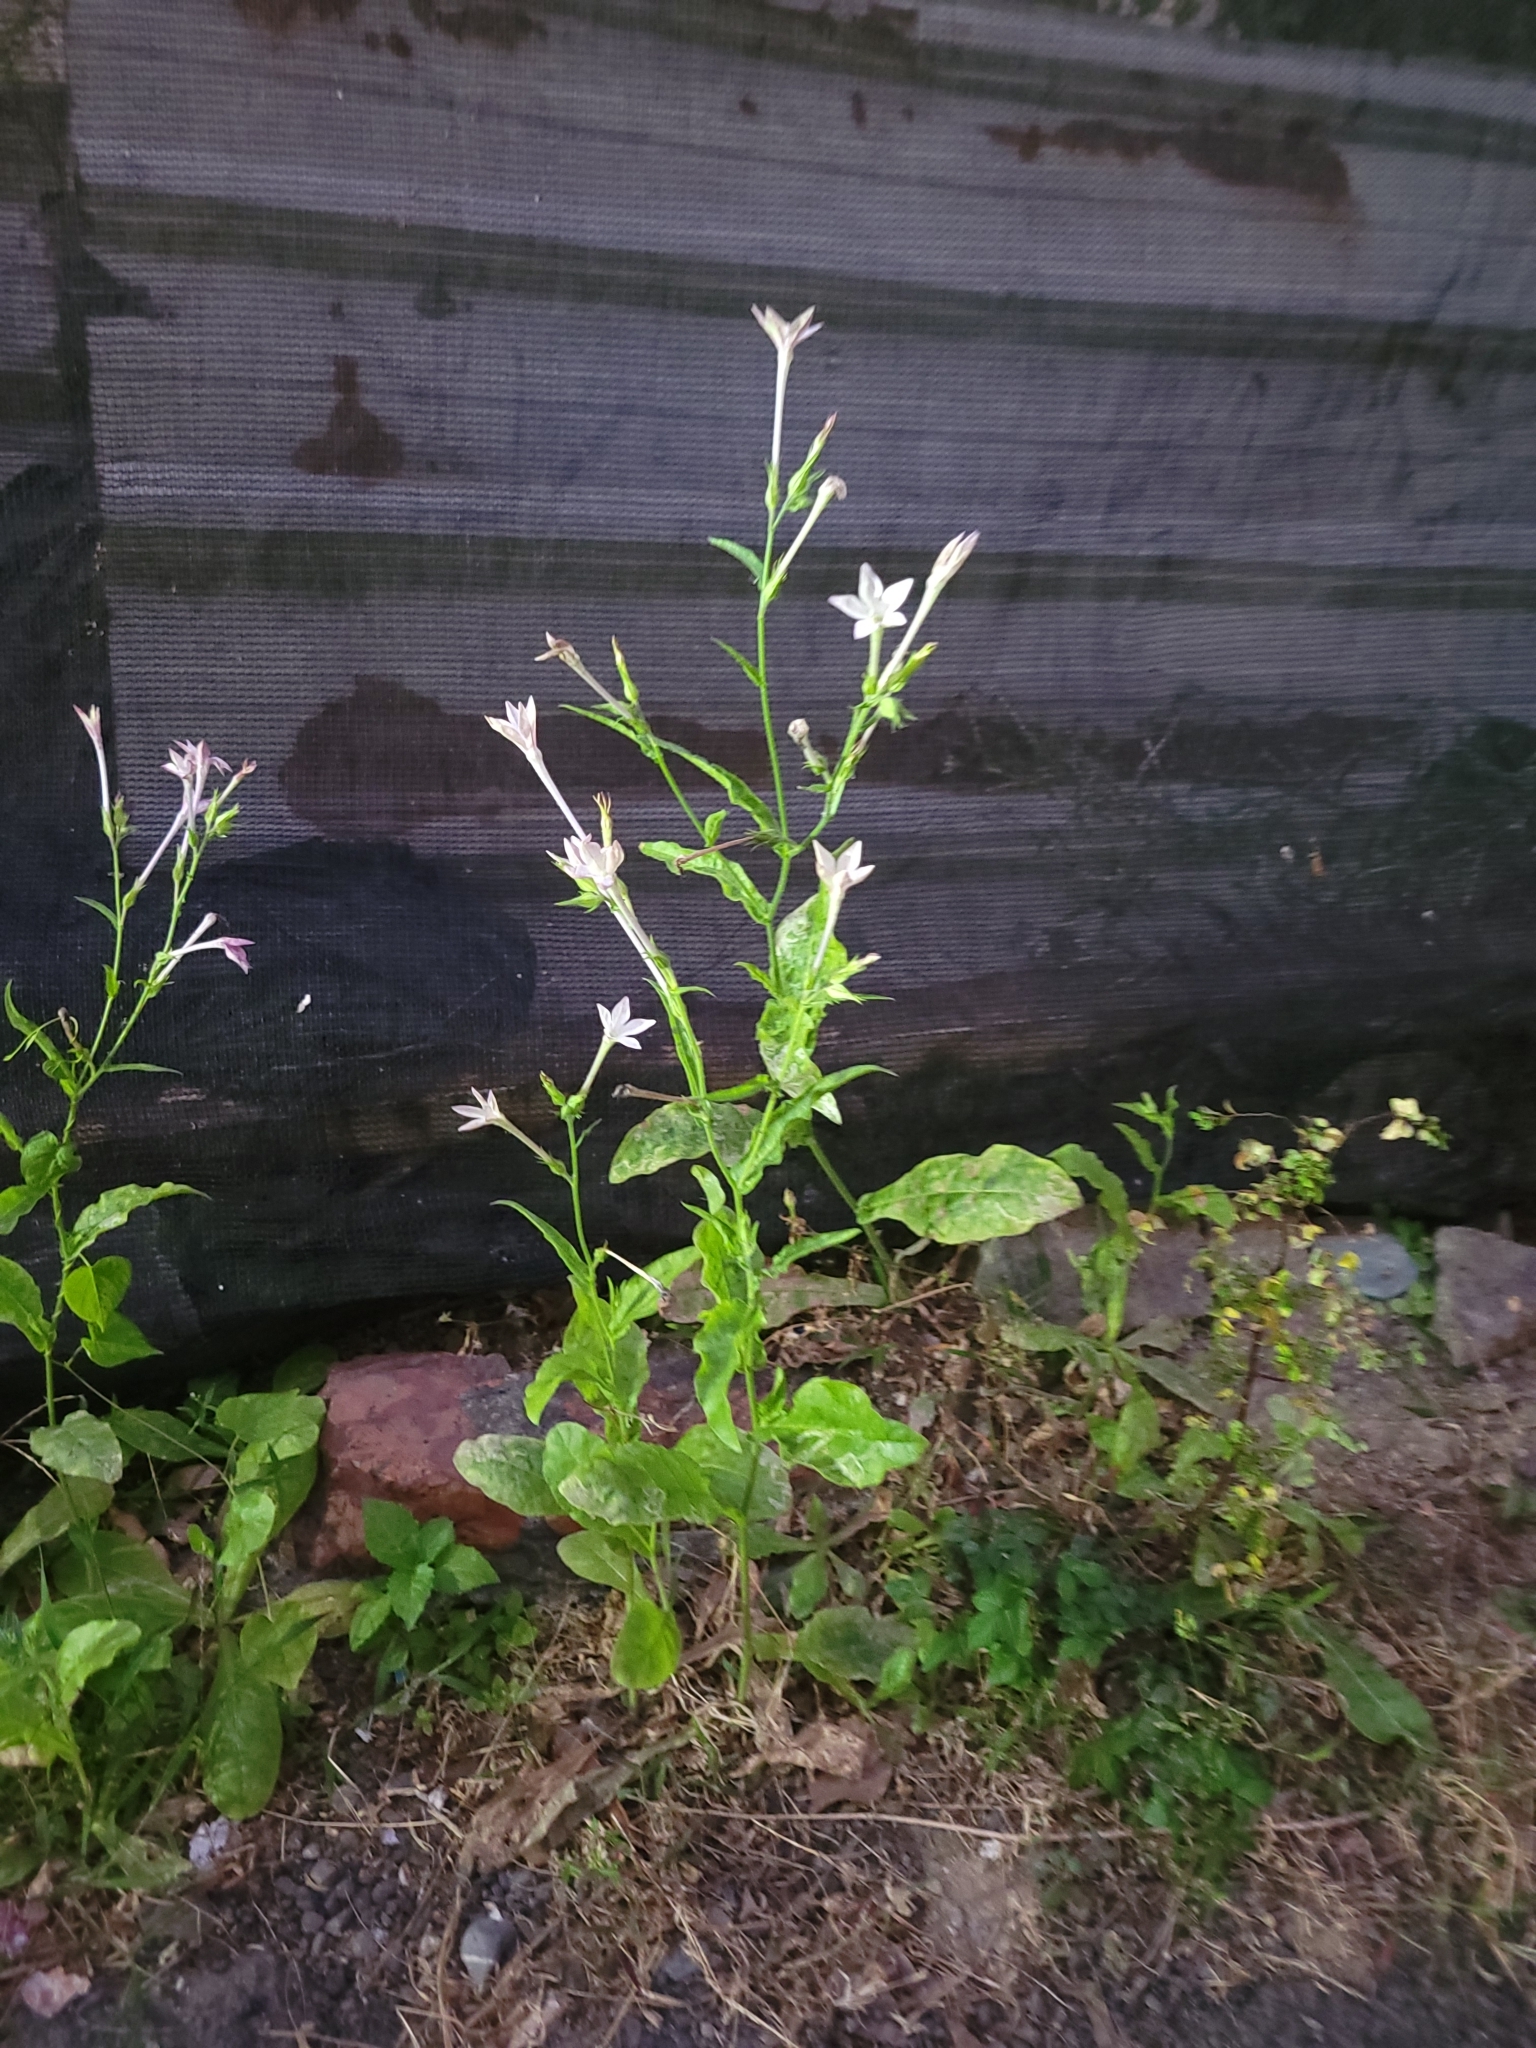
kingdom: Plantae
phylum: Tracheophyta
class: Magnoliopsida
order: Solanales
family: Solanaceae
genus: Nicotiana
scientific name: Nicotiana plumbaginifolia
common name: Tex-mex tobacco
